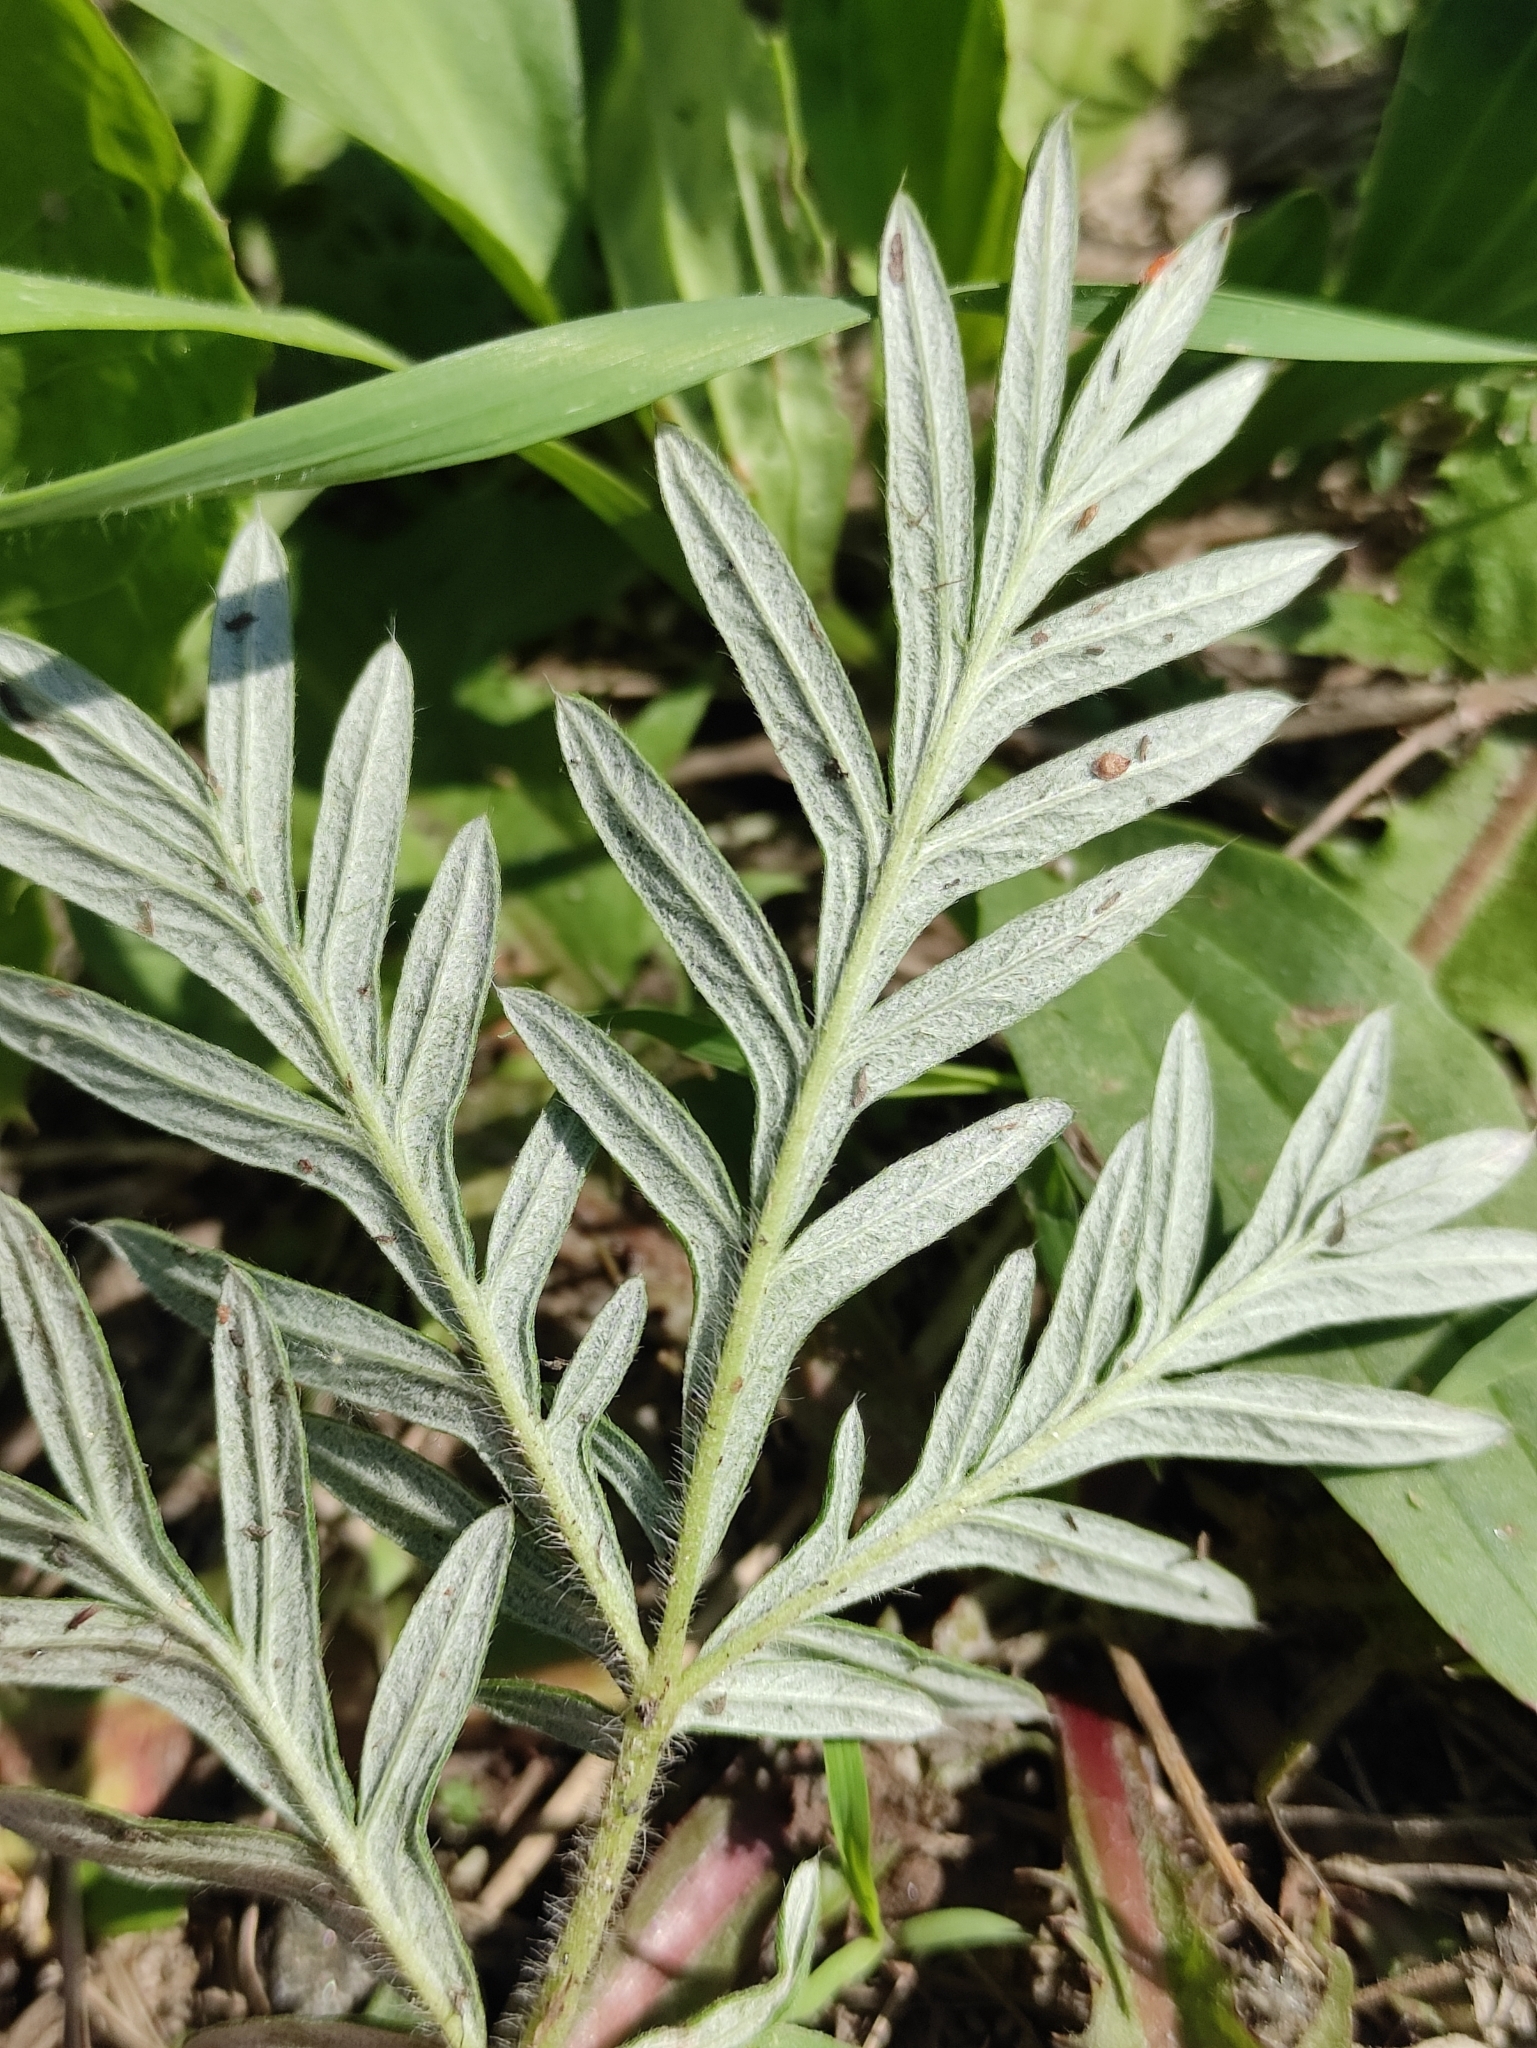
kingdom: Plantae
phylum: Tracheophyta
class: Magnoliopsida
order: Rosales
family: Rosaceae
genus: Potentilla
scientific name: Potentilla tergemina
